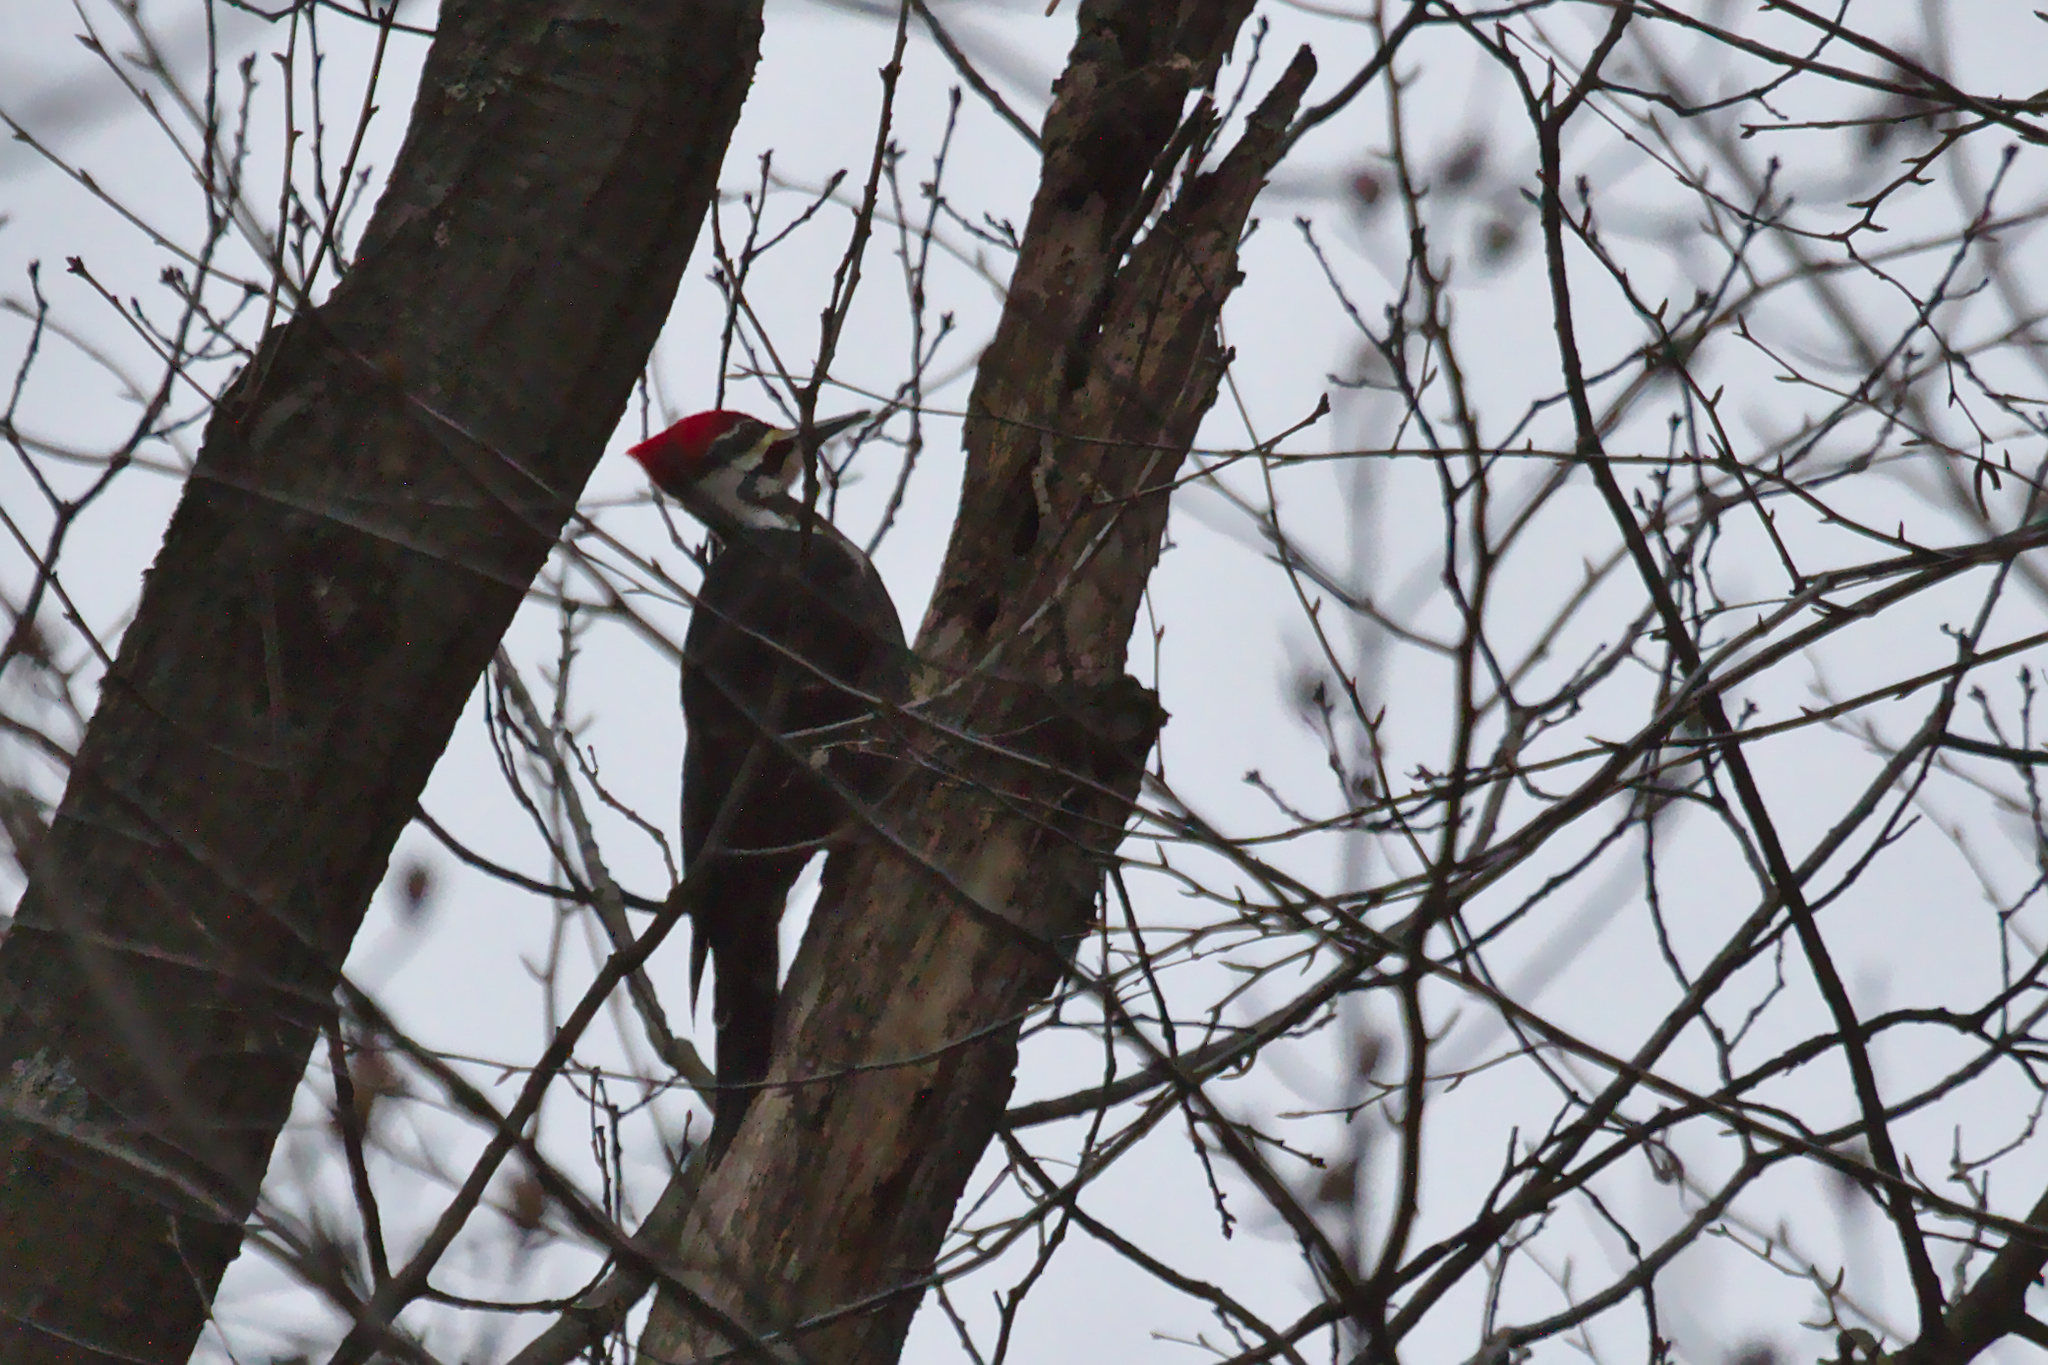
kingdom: Animalia
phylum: Chordata
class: Aves
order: Piciformes
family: Picidae
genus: Dryocopus
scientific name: Dryocopus pileatus
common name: Pileated woodpecker
